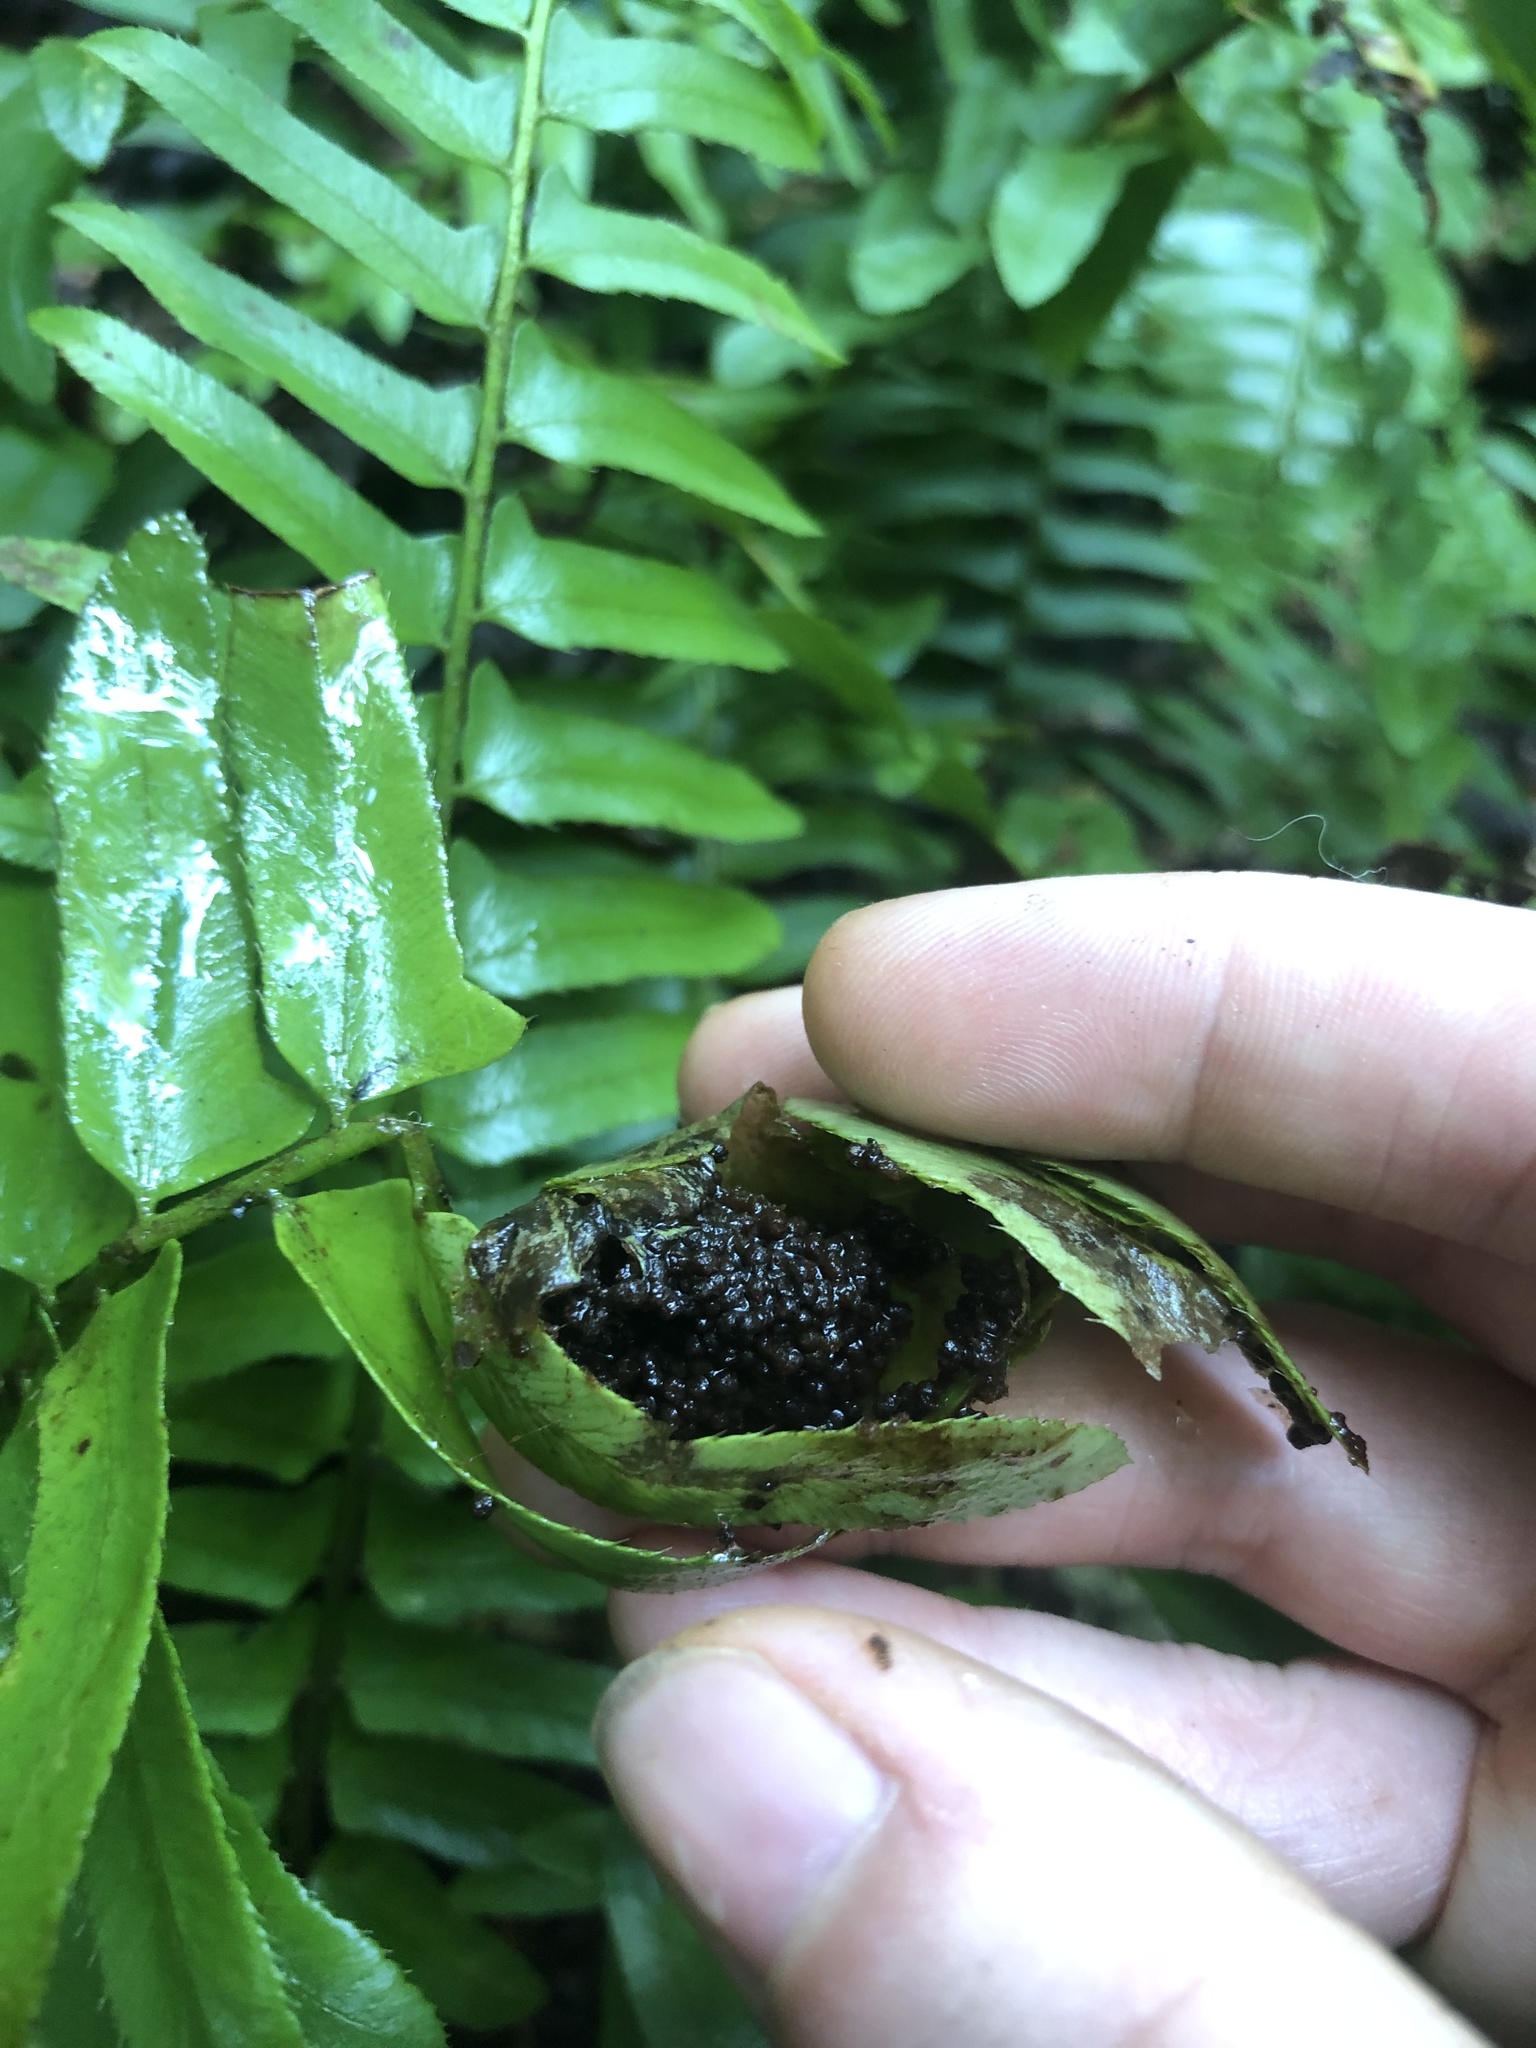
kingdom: Animalia
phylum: Arthropoda
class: Insecta
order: Lepidoptera
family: Crambidae
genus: Herpetogramma
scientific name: Herpetogramma sphingealis
